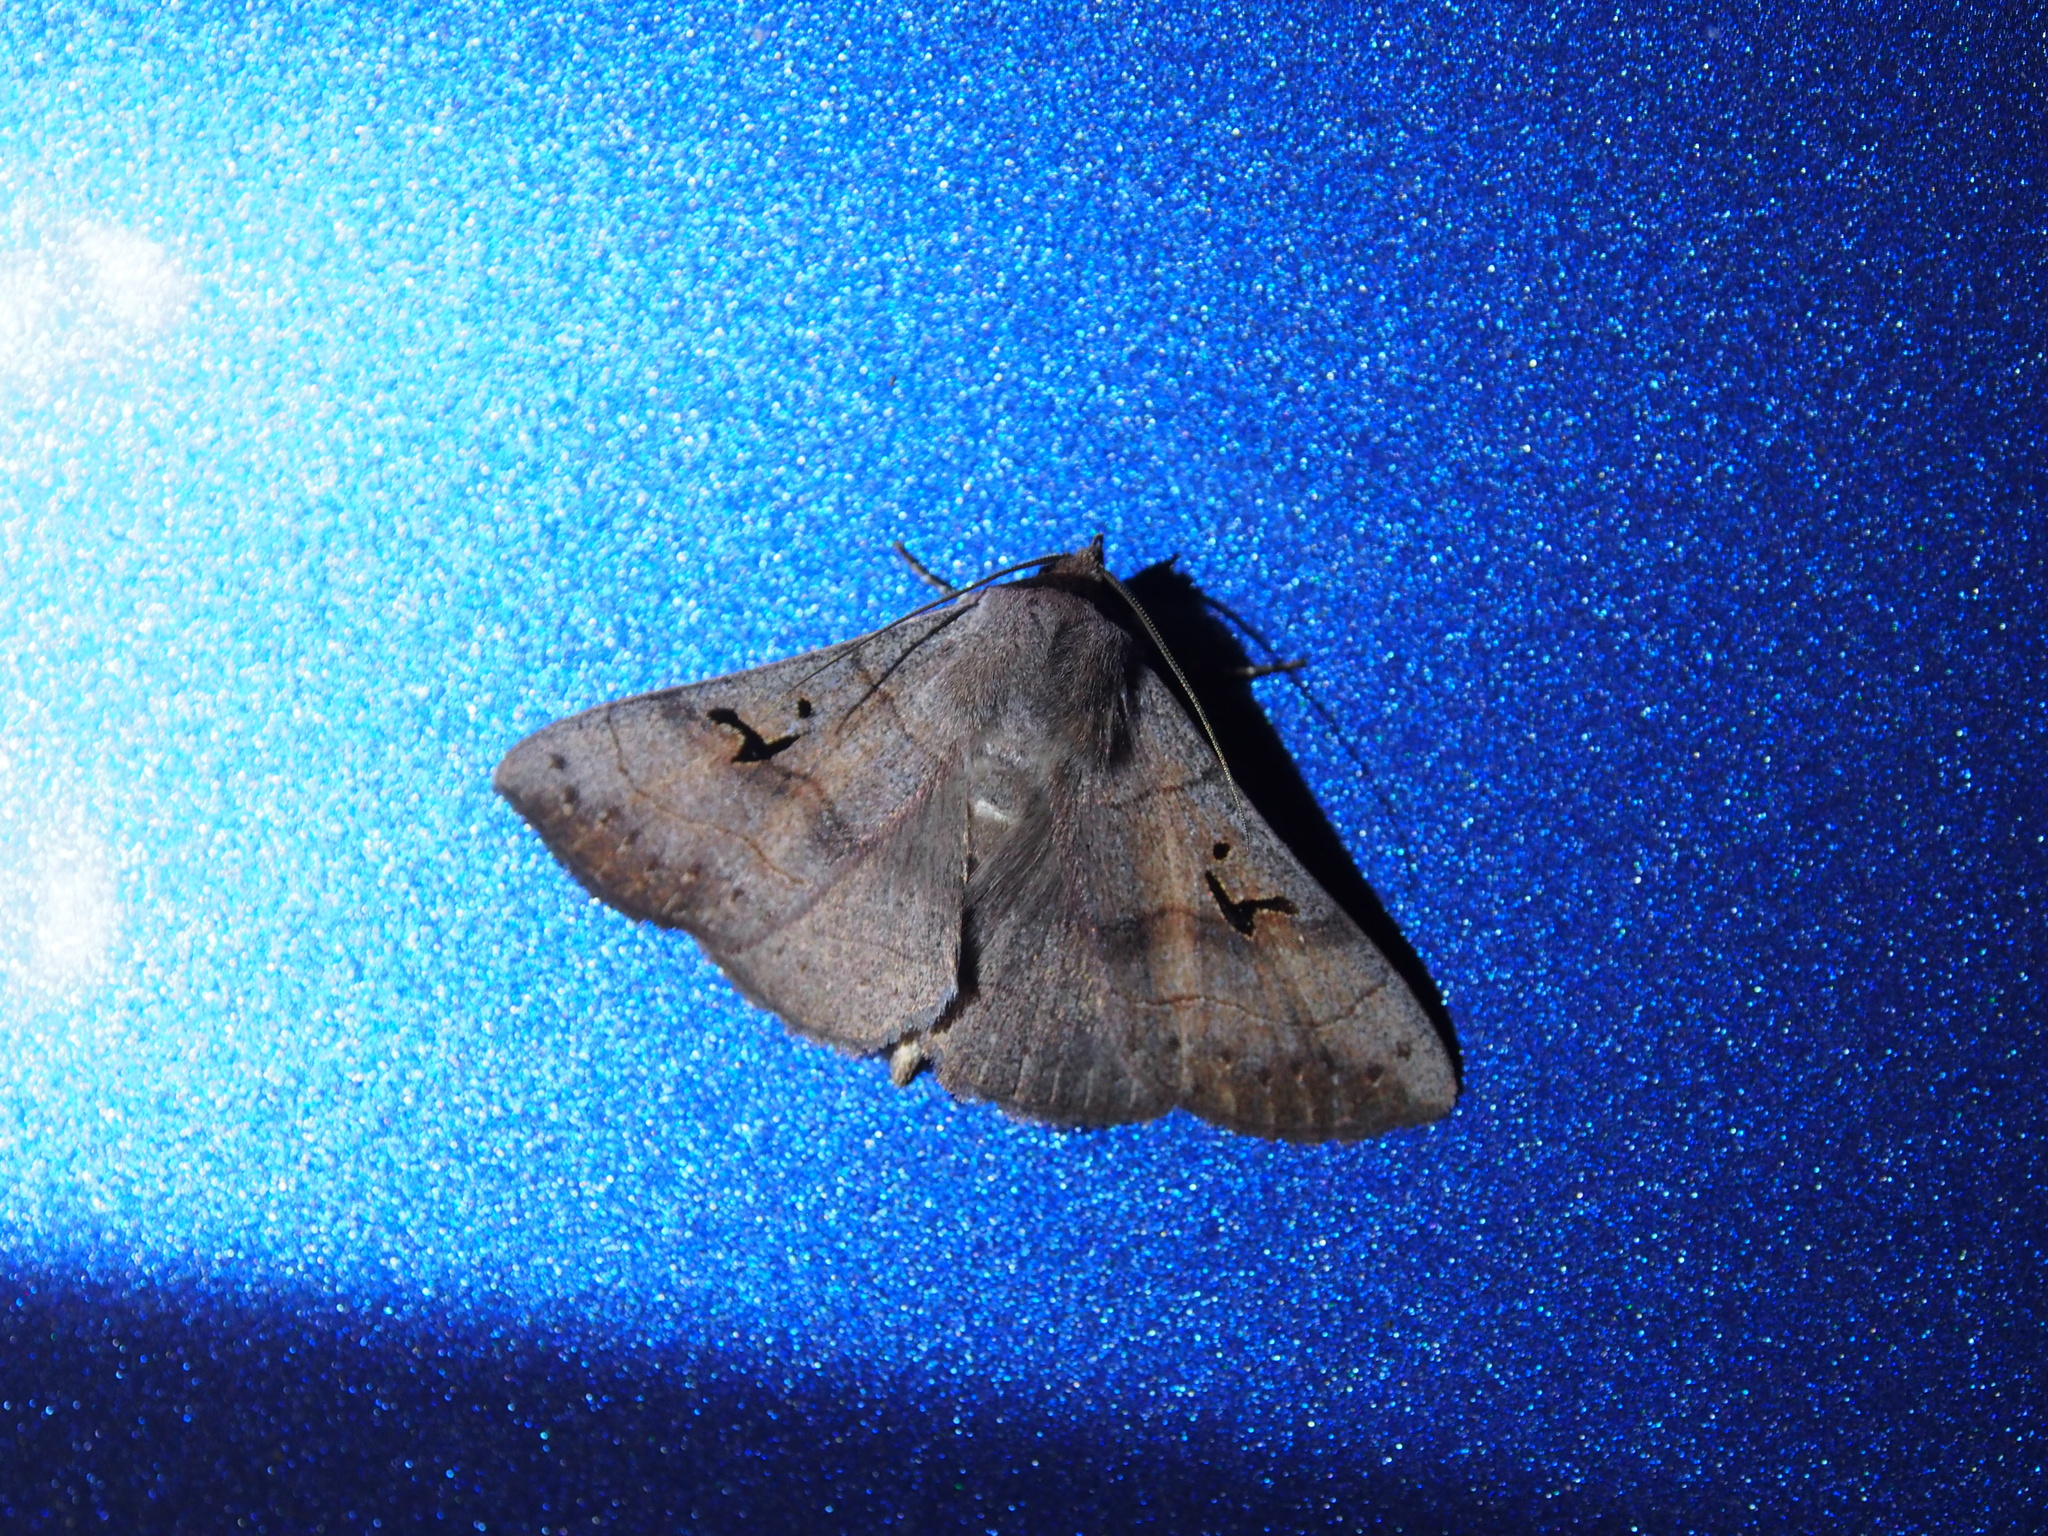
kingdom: Animalia
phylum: Arthropoda
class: Insecta
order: Lepidoptera
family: Erebidae
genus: Panopoda
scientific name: Panopoda carneicosta
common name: Brown panopoda moth
